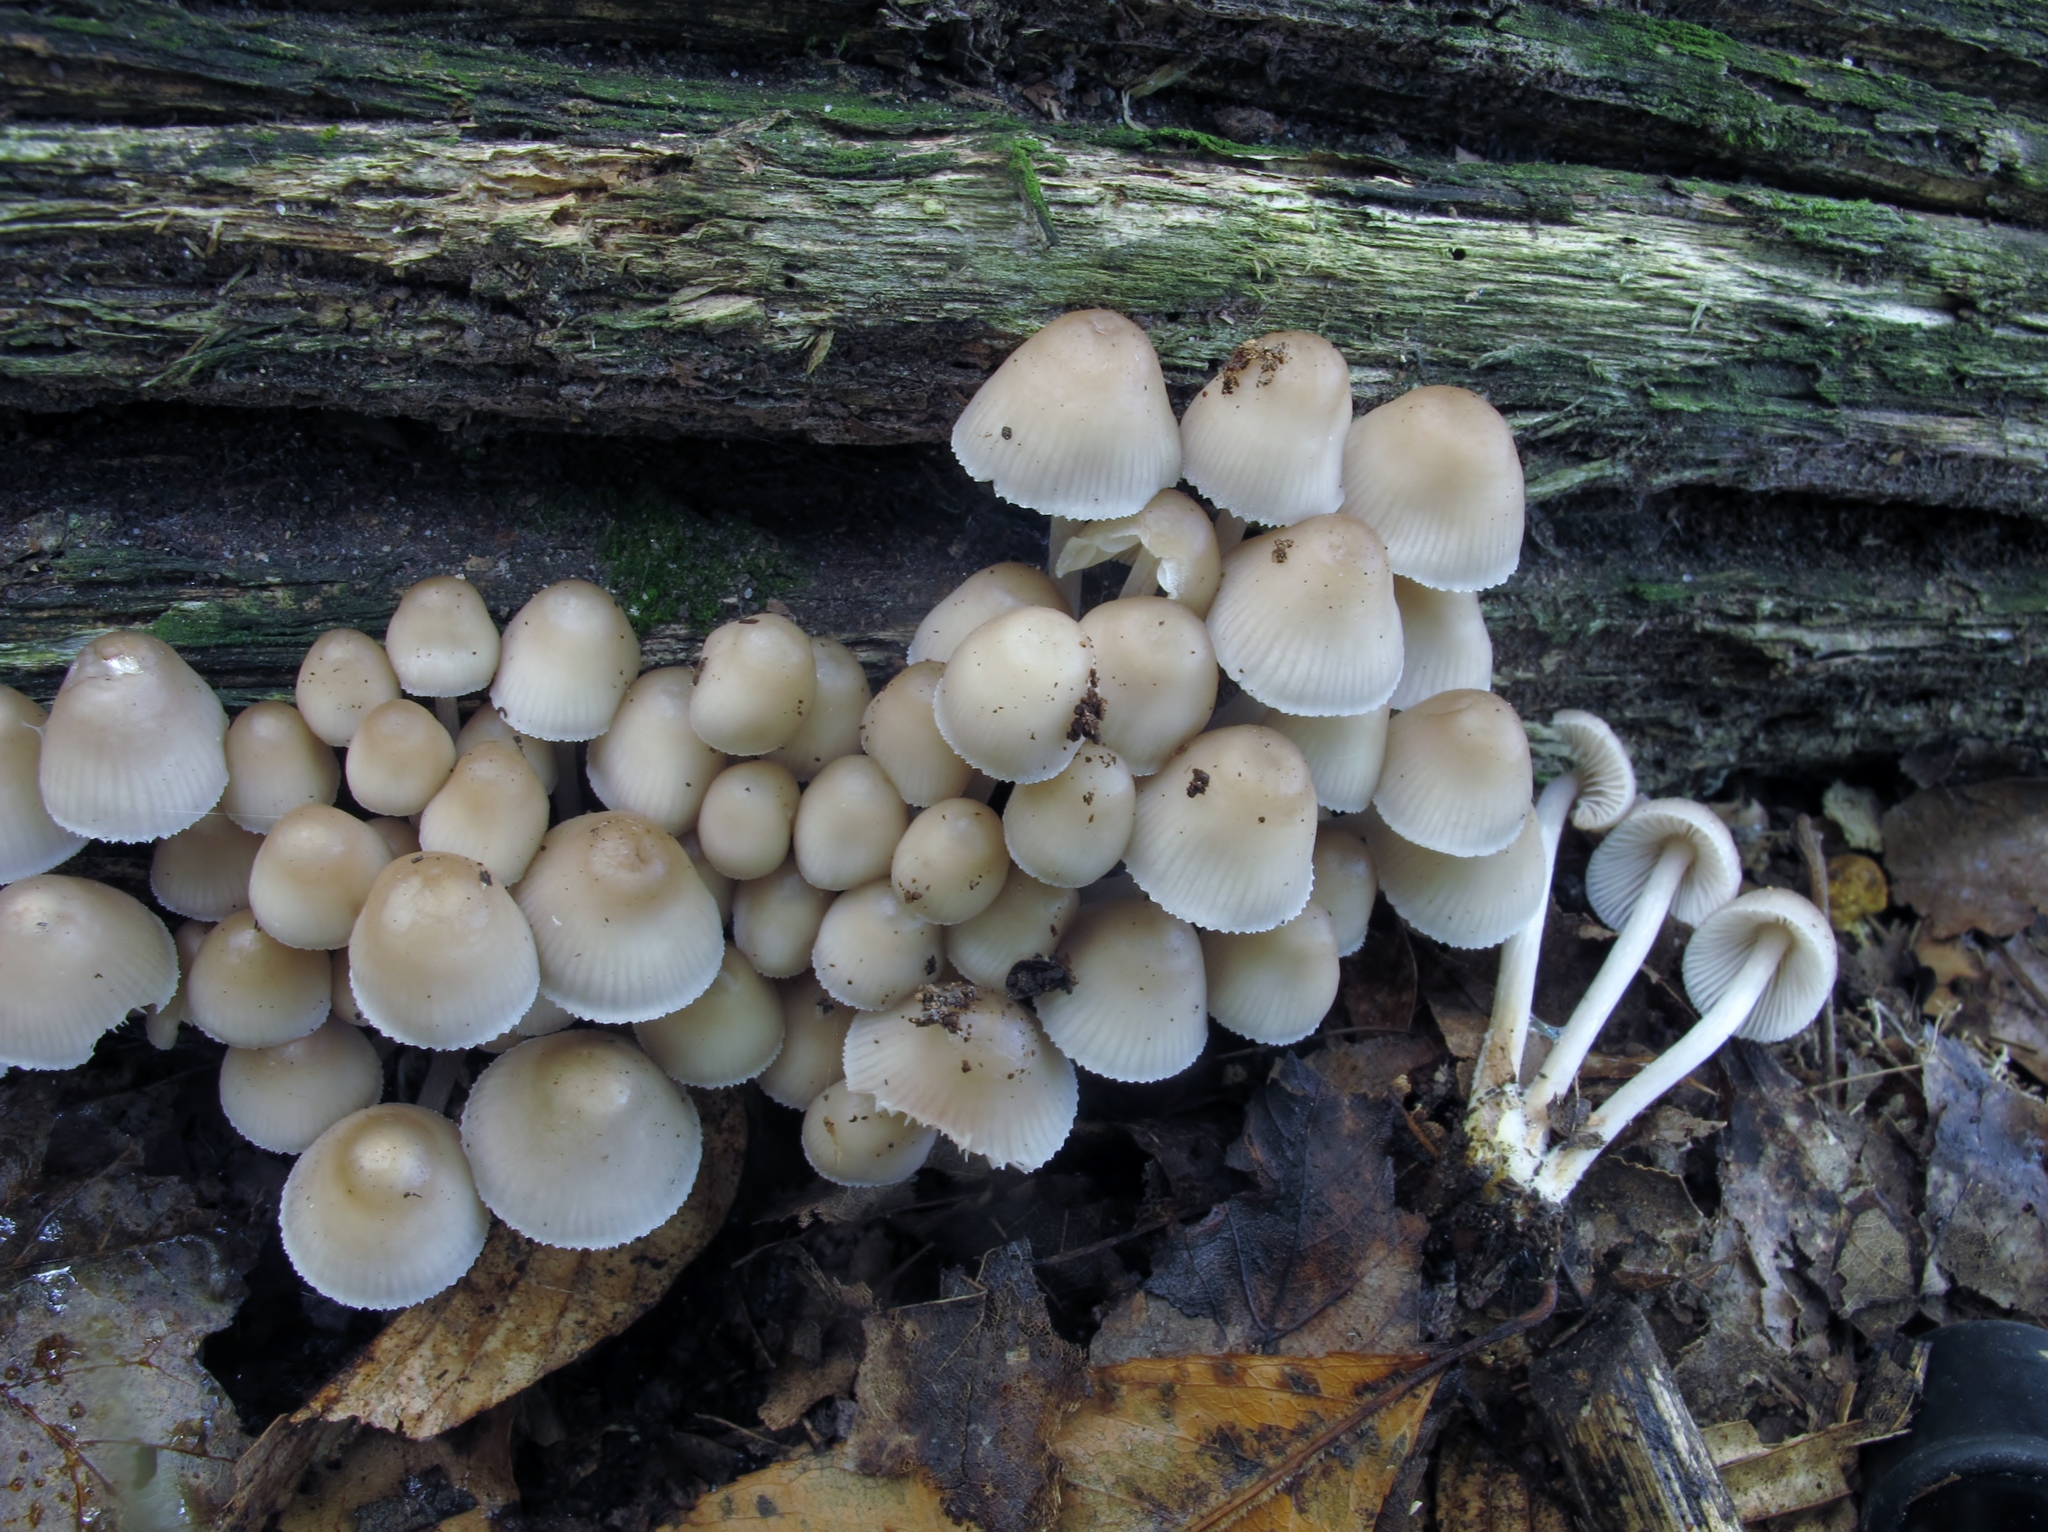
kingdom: Fungi
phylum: Basidiomycota
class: Agaricomycetes
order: Agaricales
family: Mycenaceae
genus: Mycena
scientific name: Mycena inclinata
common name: Clustered bonnet
